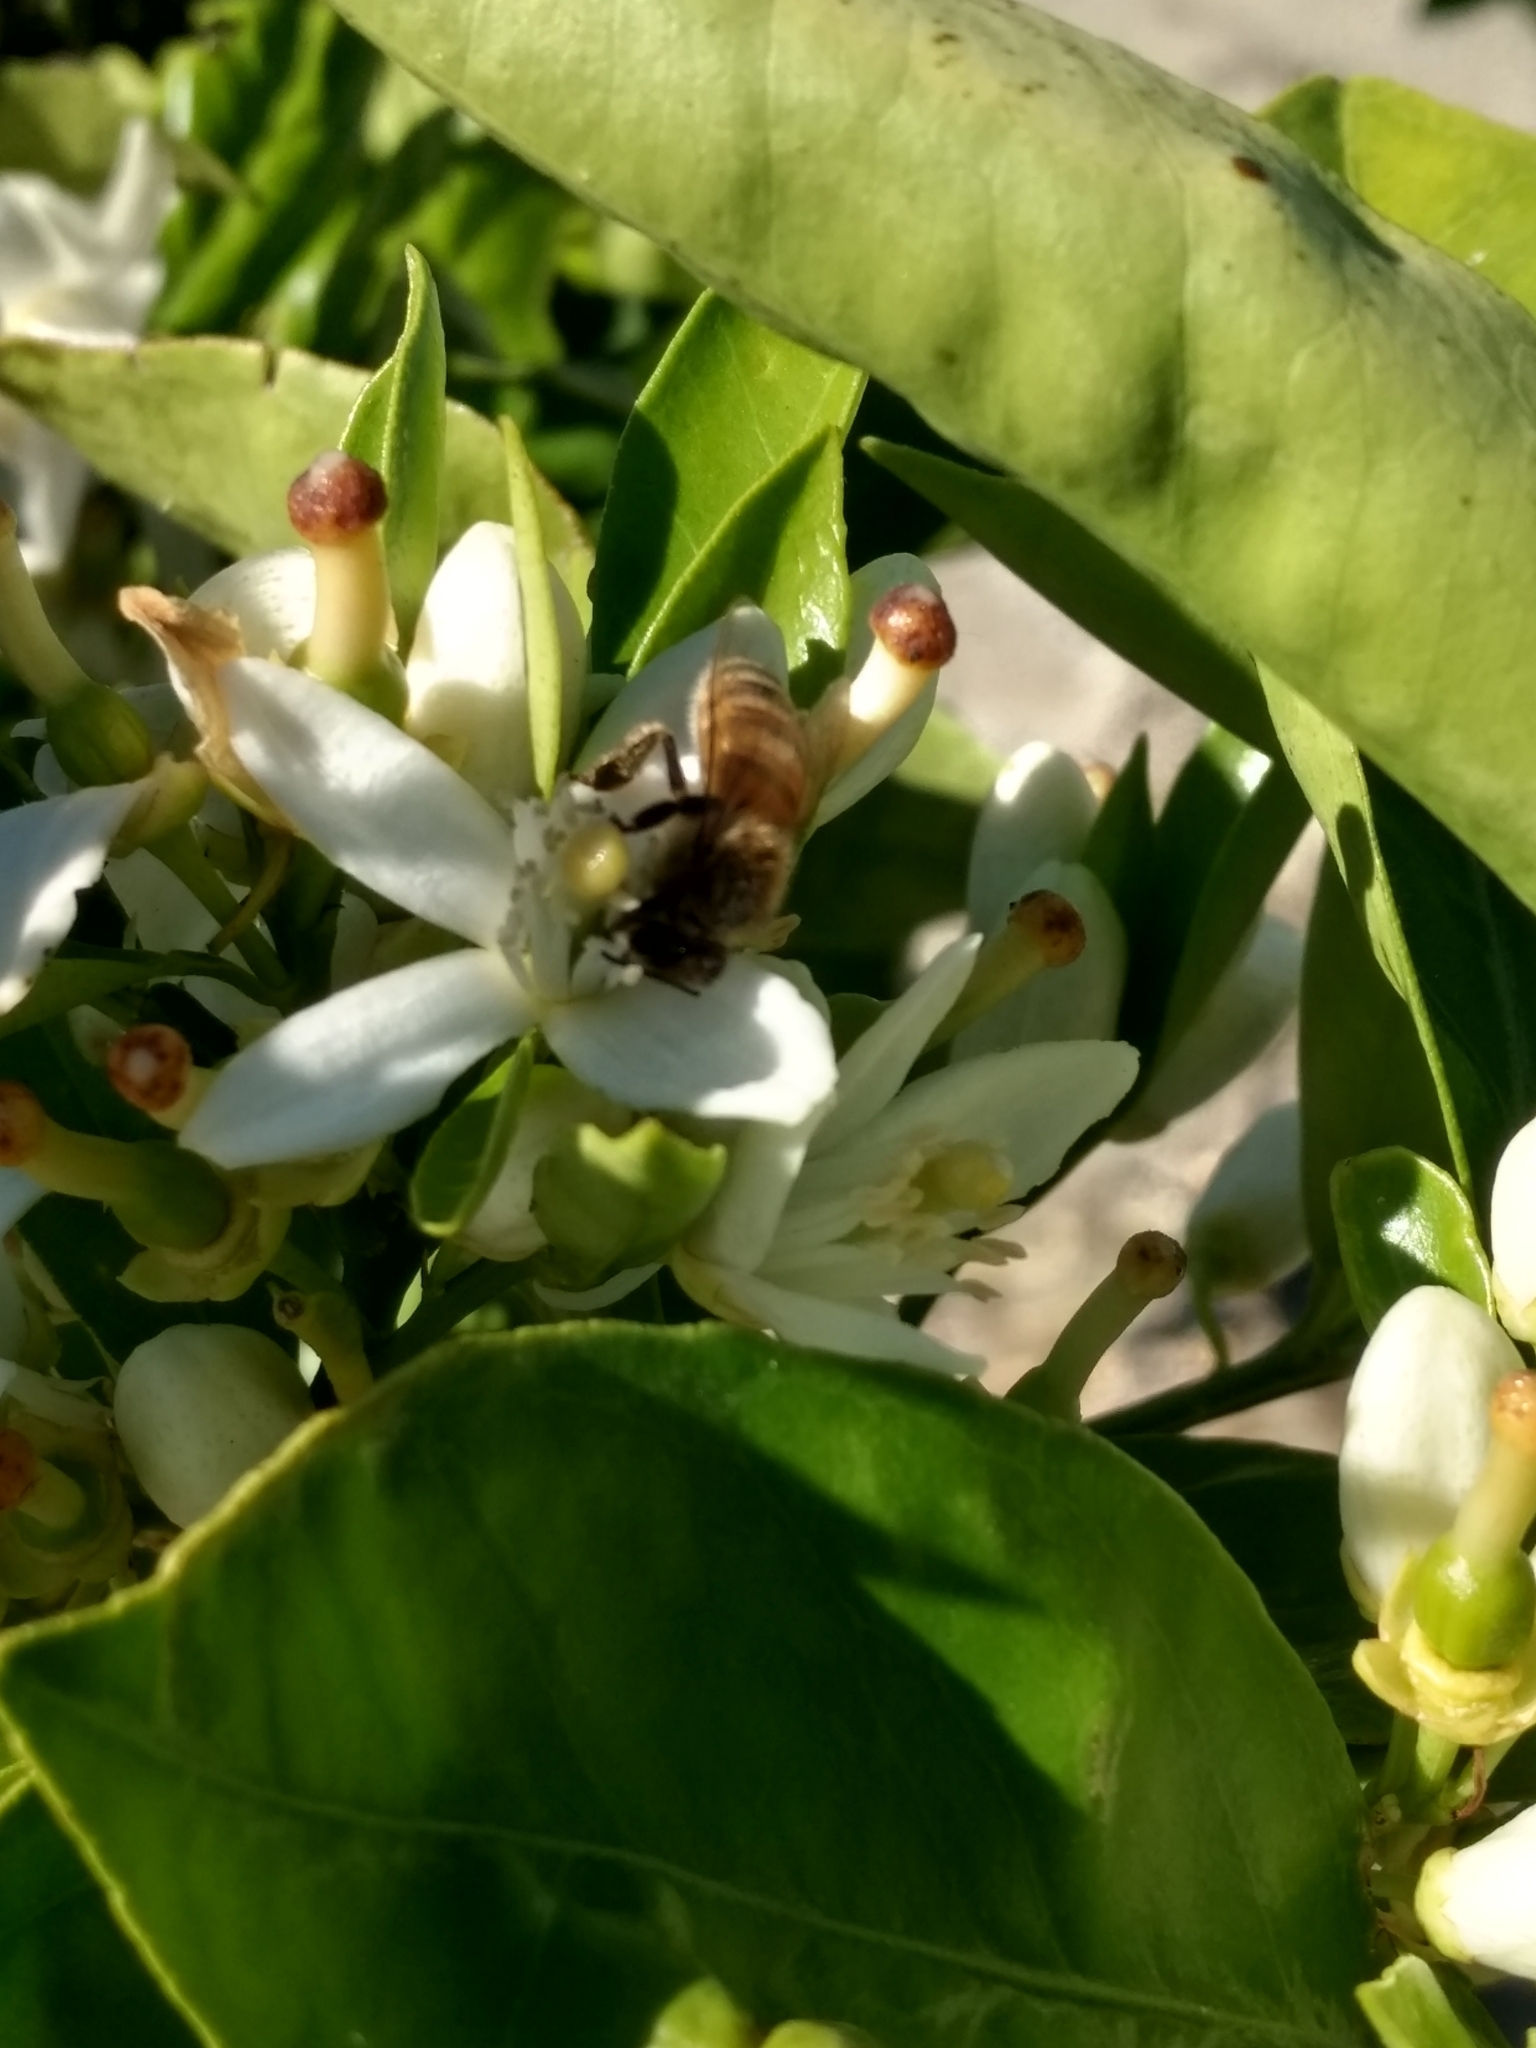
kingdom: Animalia
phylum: Arthropoda
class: Insecta
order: Hymenoptera
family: Apidae
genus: Apis
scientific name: Apis mellifera
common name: Honey bee
